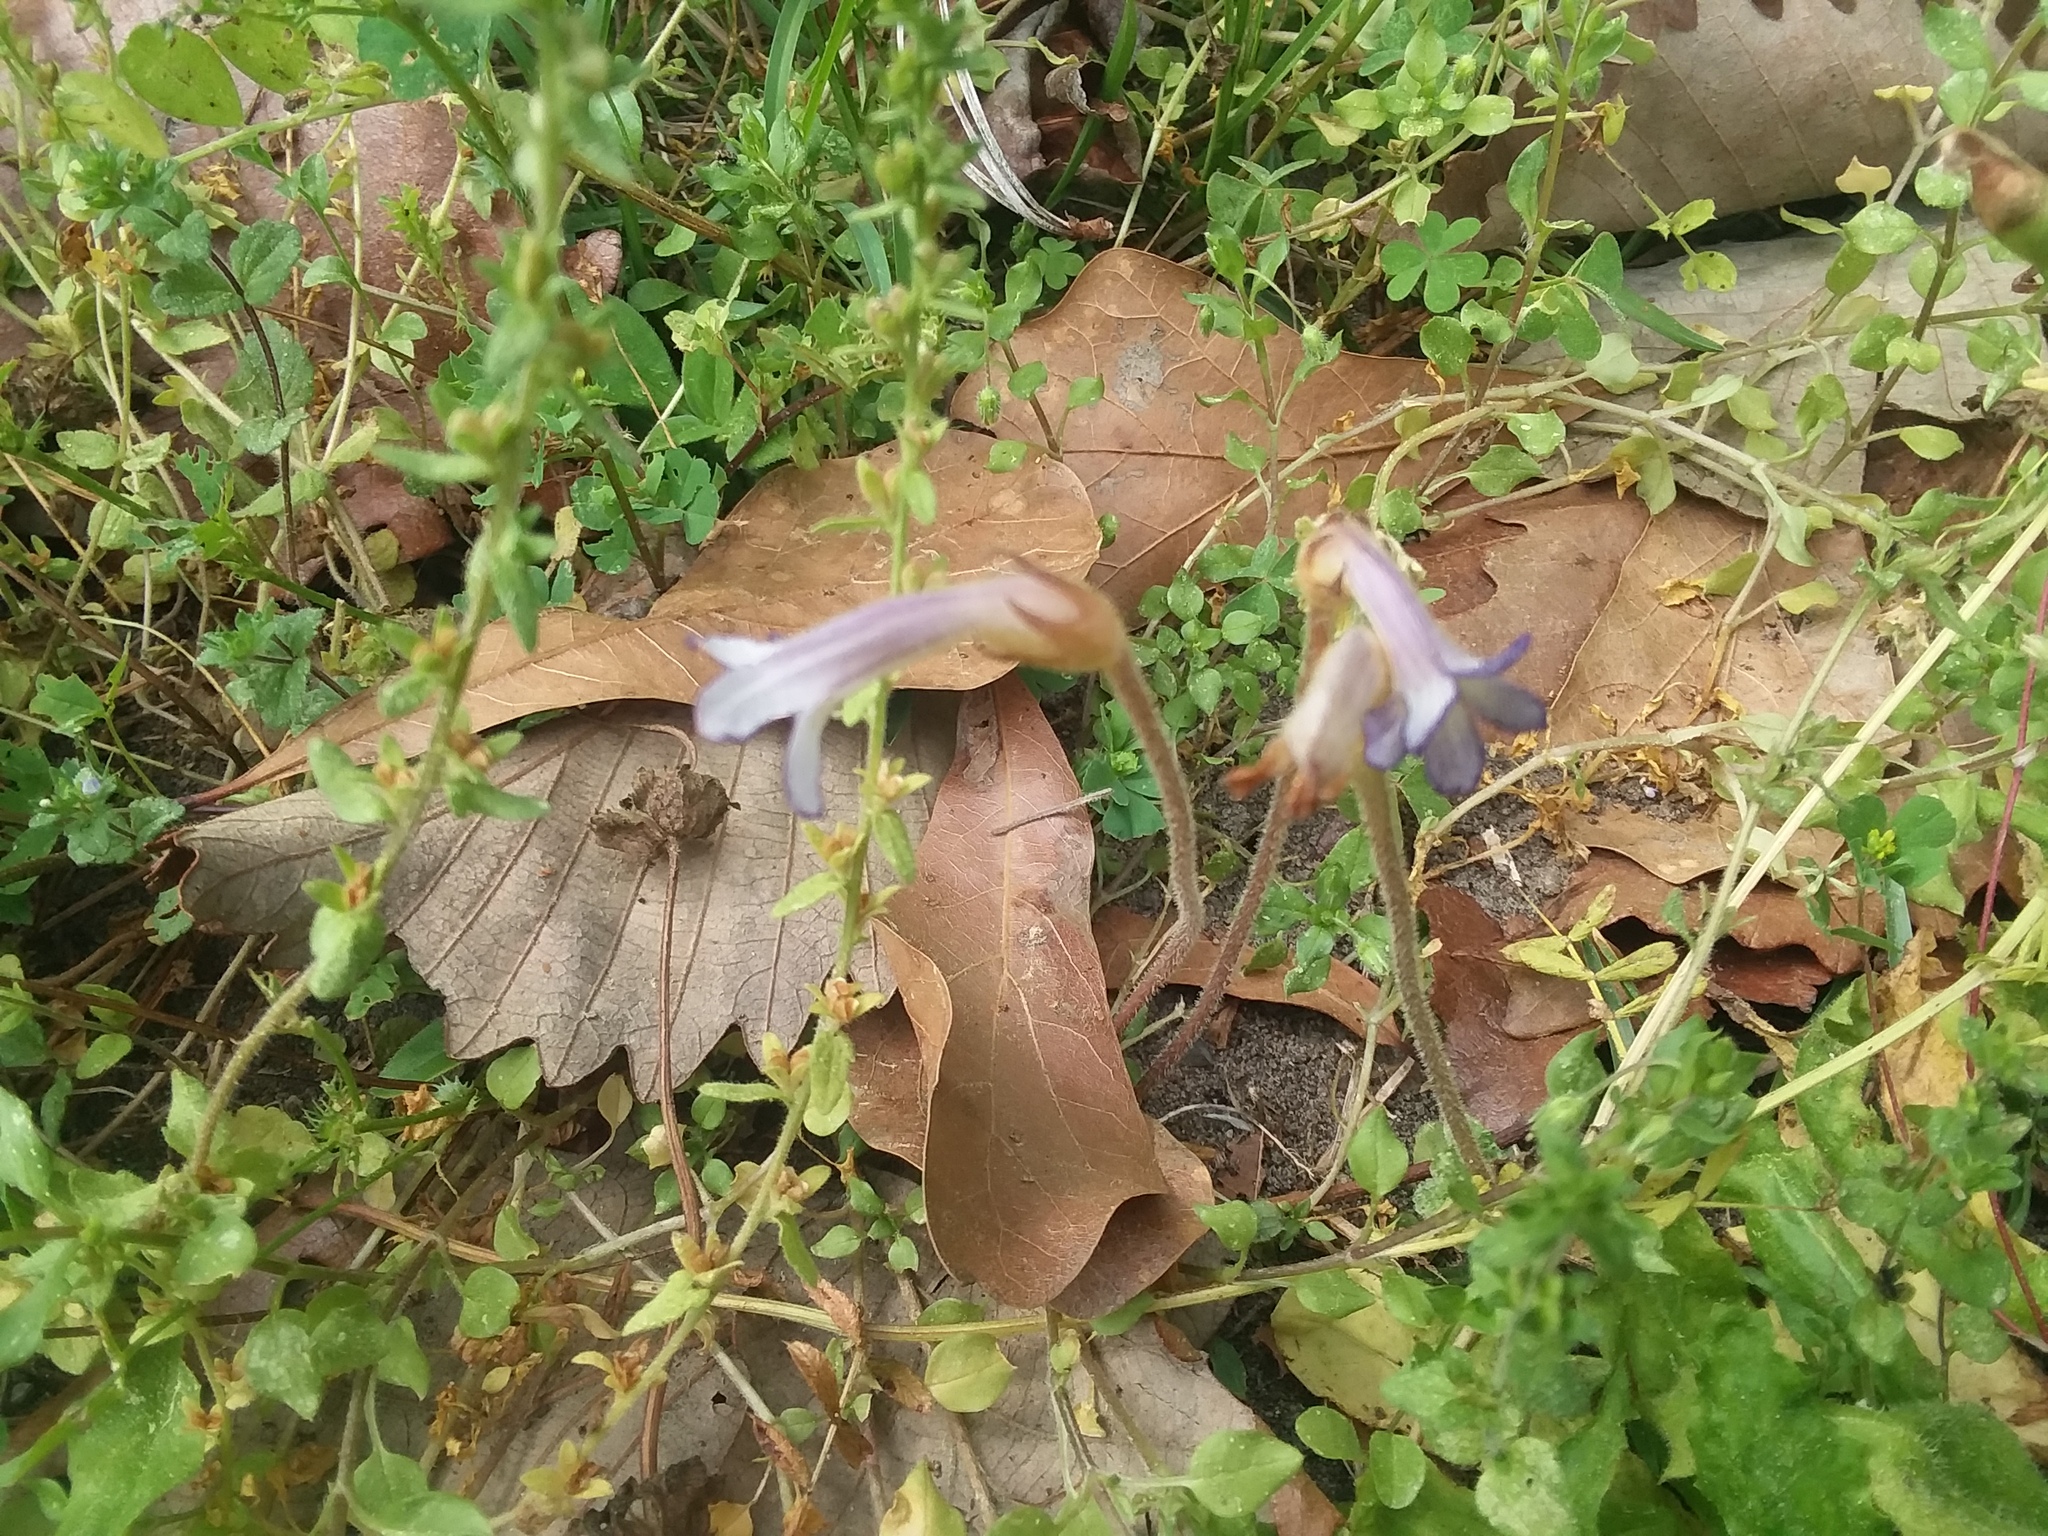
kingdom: Plantae
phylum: Tracheophyta
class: Magnoliopsida
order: Lamiales
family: Orobanchaceae
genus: Aphyllon
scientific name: Aphyllon uniflorum
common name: One-flowered broomrape
